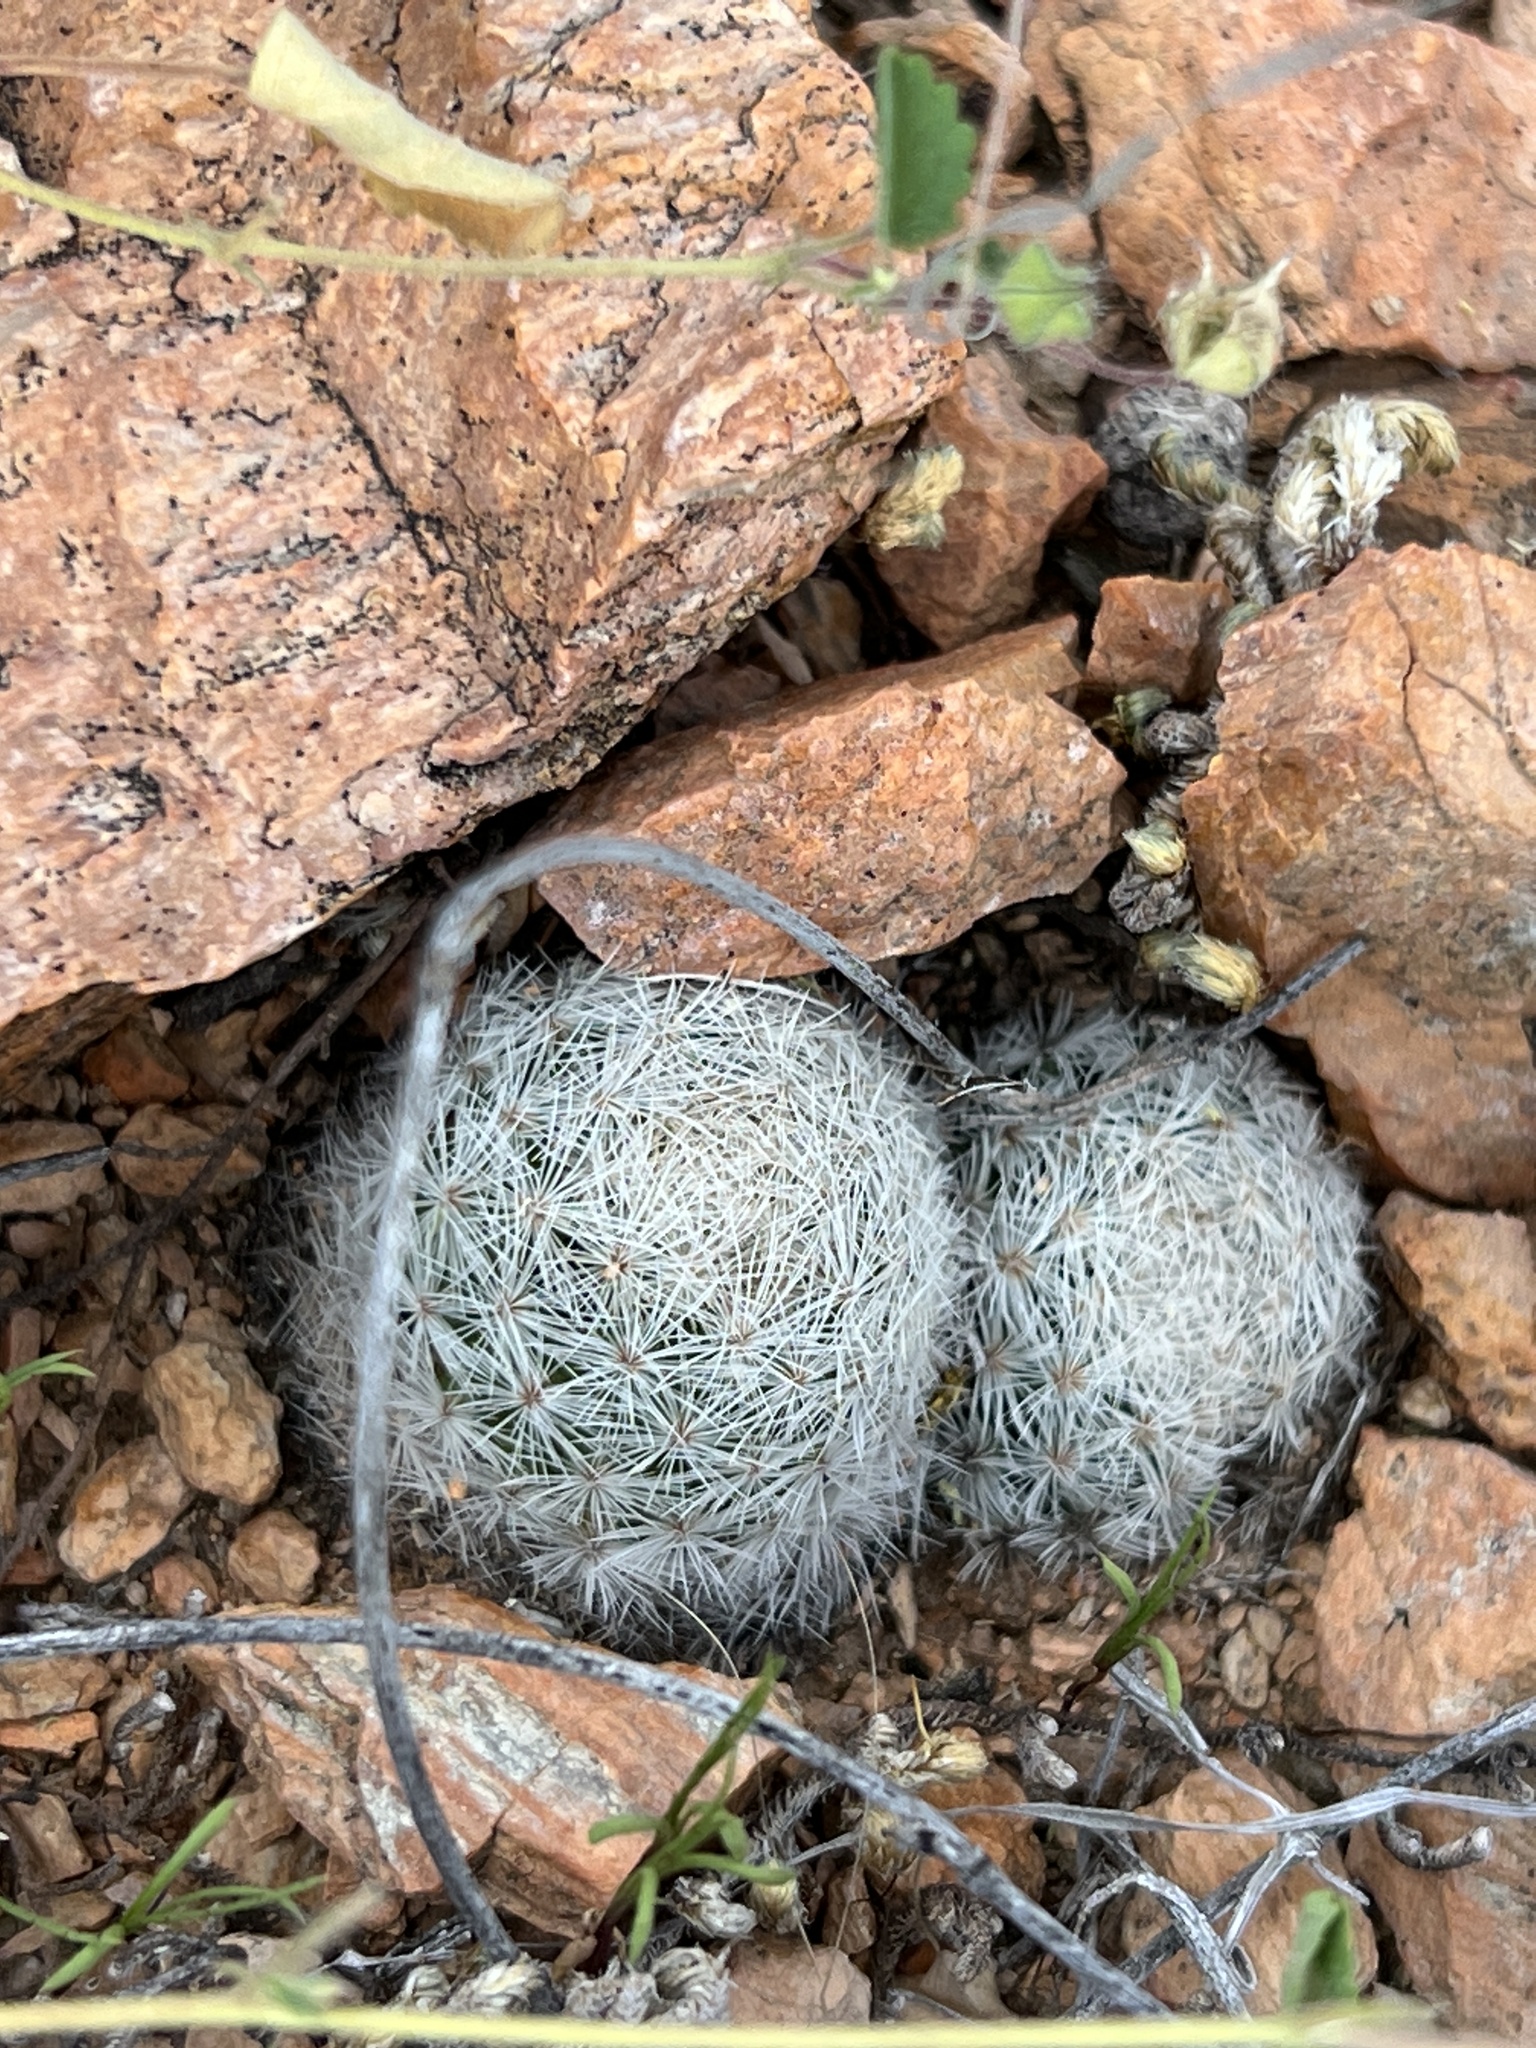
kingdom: Plantae
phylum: Tracheophyta
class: Magnoliopsida
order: Caryophyllales
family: Cactaceae
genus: Mammillaria
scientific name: Mammillaria lasiacantha
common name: Lace-spine nipple cactus
